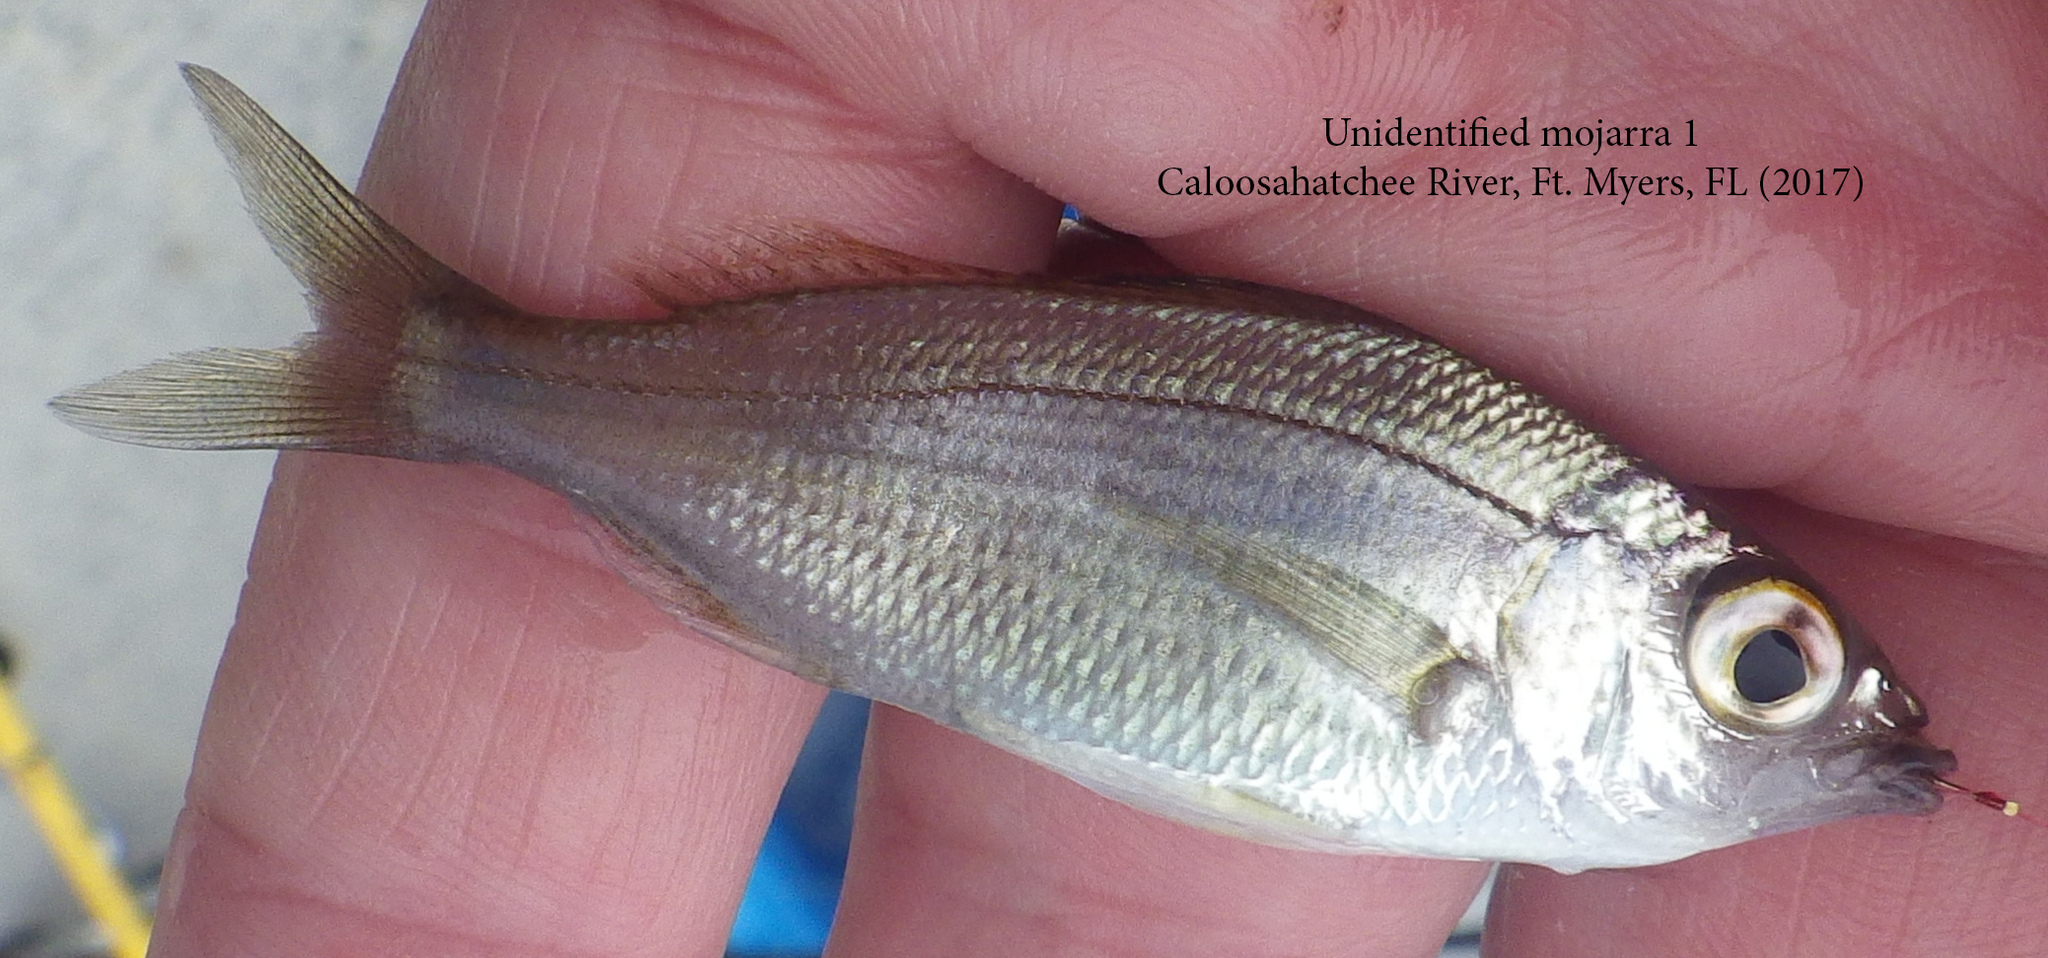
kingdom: Animalia
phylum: Chordata
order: Perciformes
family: Gerreidae
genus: Eucinostomus
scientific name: Eucinostomus harengulus
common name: Tidewater mojarra
